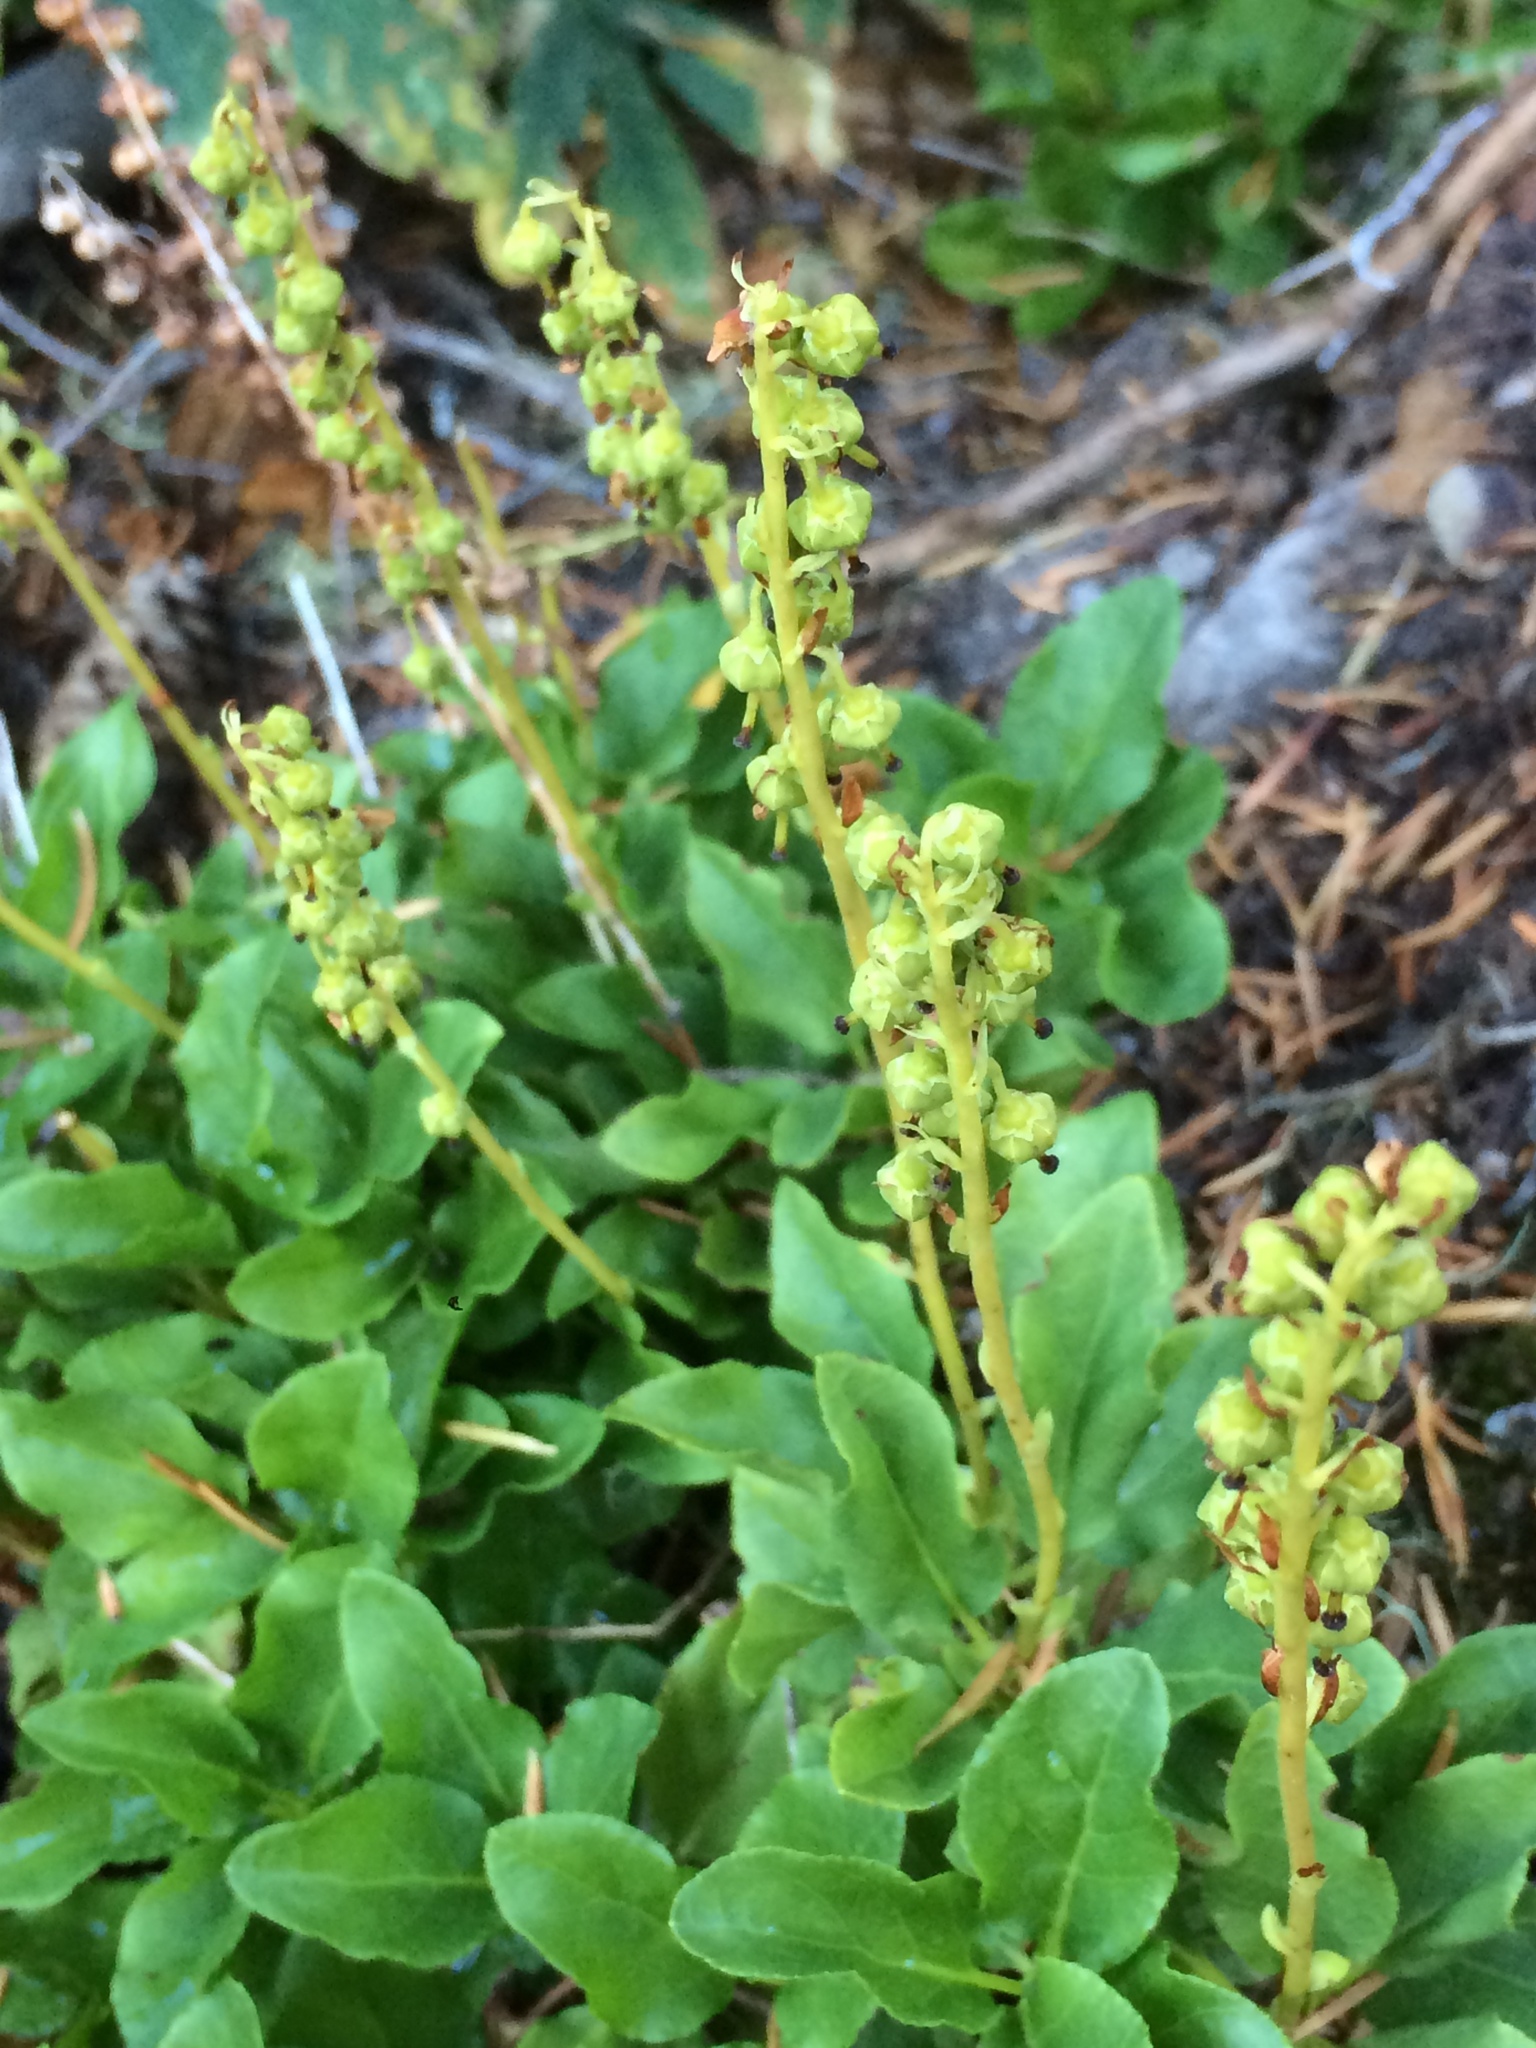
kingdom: Plantae
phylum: Tracheophyta
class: Magnoliopsida
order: Ericales
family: Ericaceae
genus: Orthilia
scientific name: Orthilia secunda
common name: One-sided orthilia
